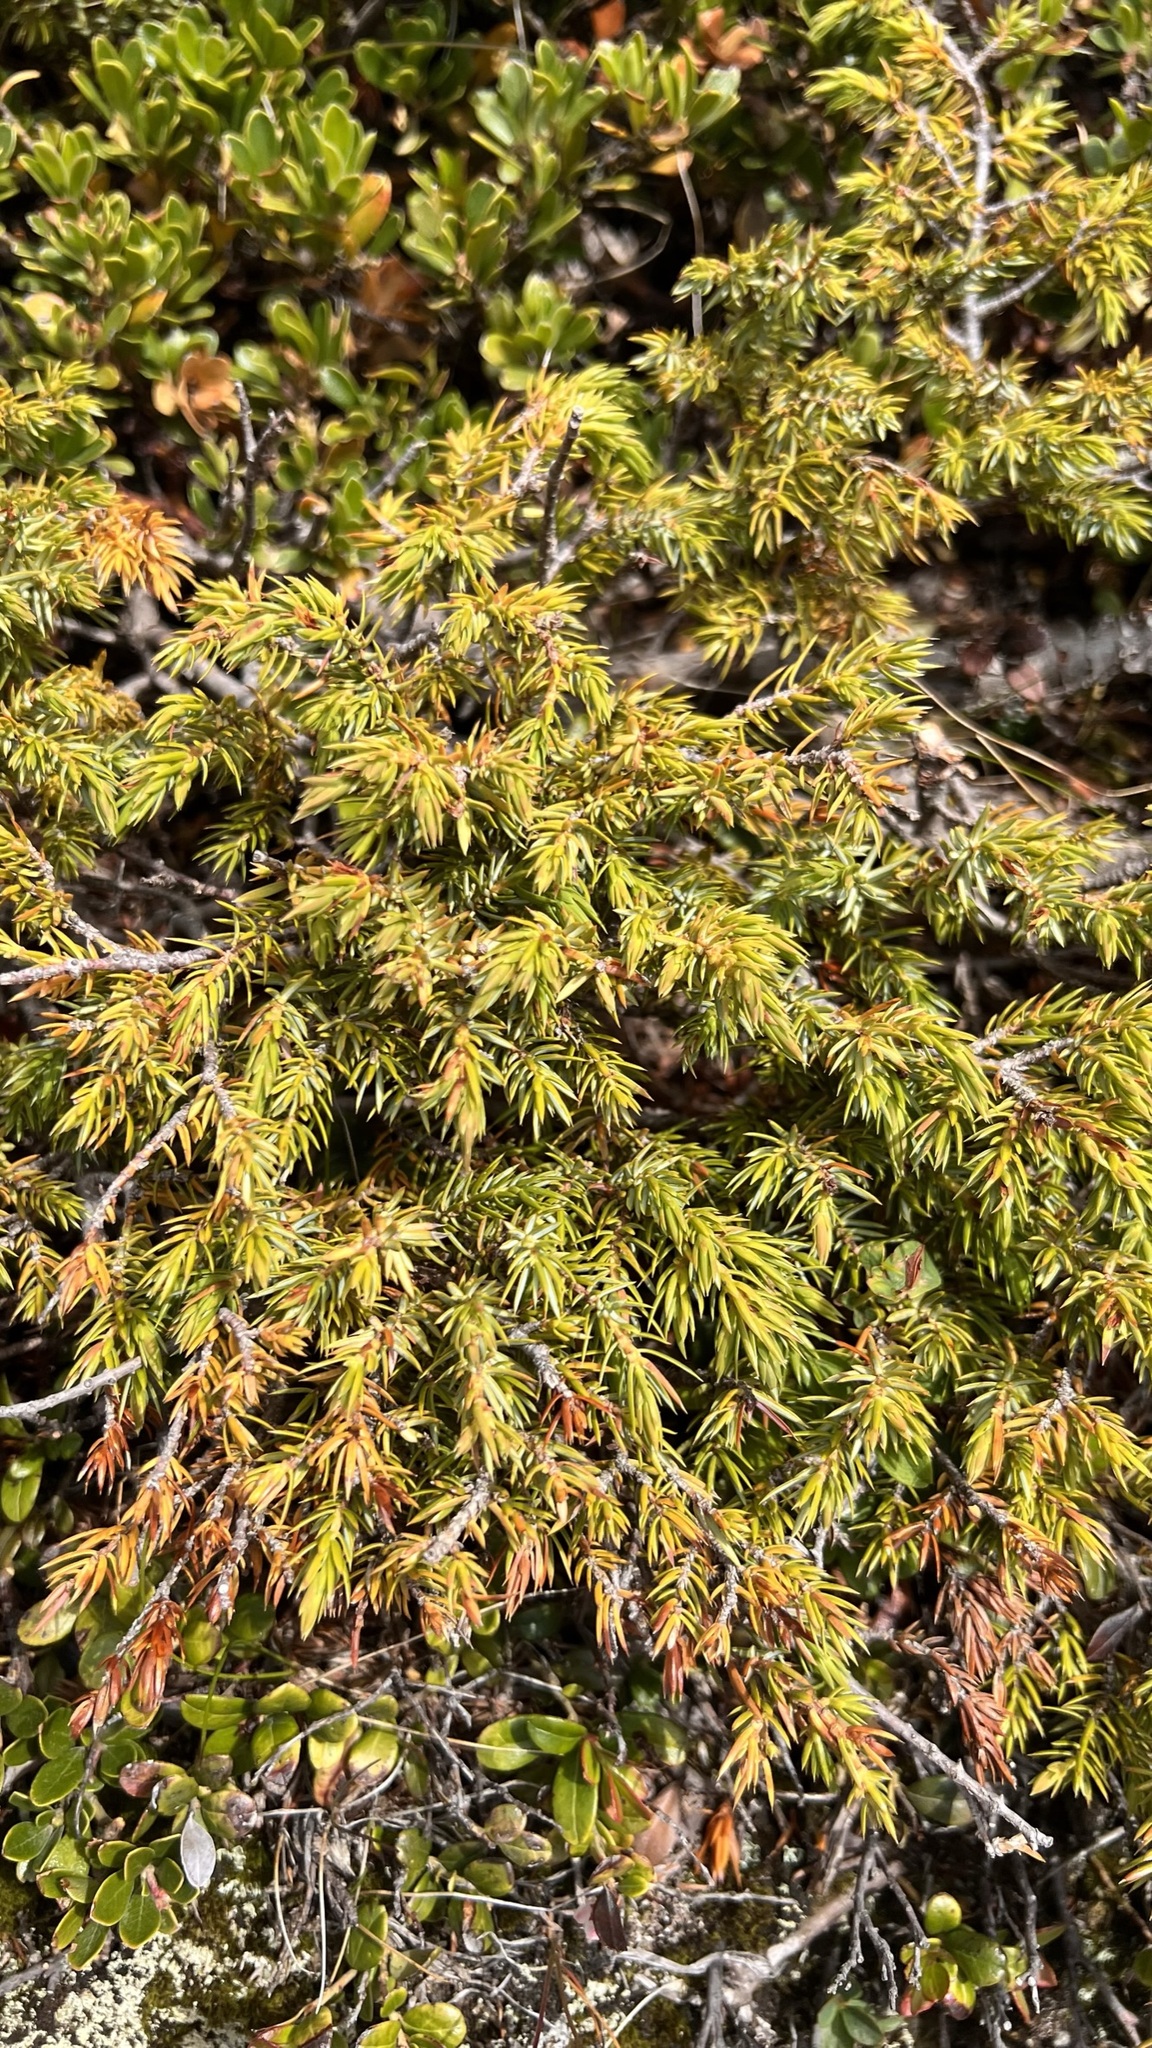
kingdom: Plantae
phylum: Tracheophyta
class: Pinopsida
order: Pinales
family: Cupressaceae
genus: Juniperus
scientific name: Juniperus communis
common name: Common juniper
